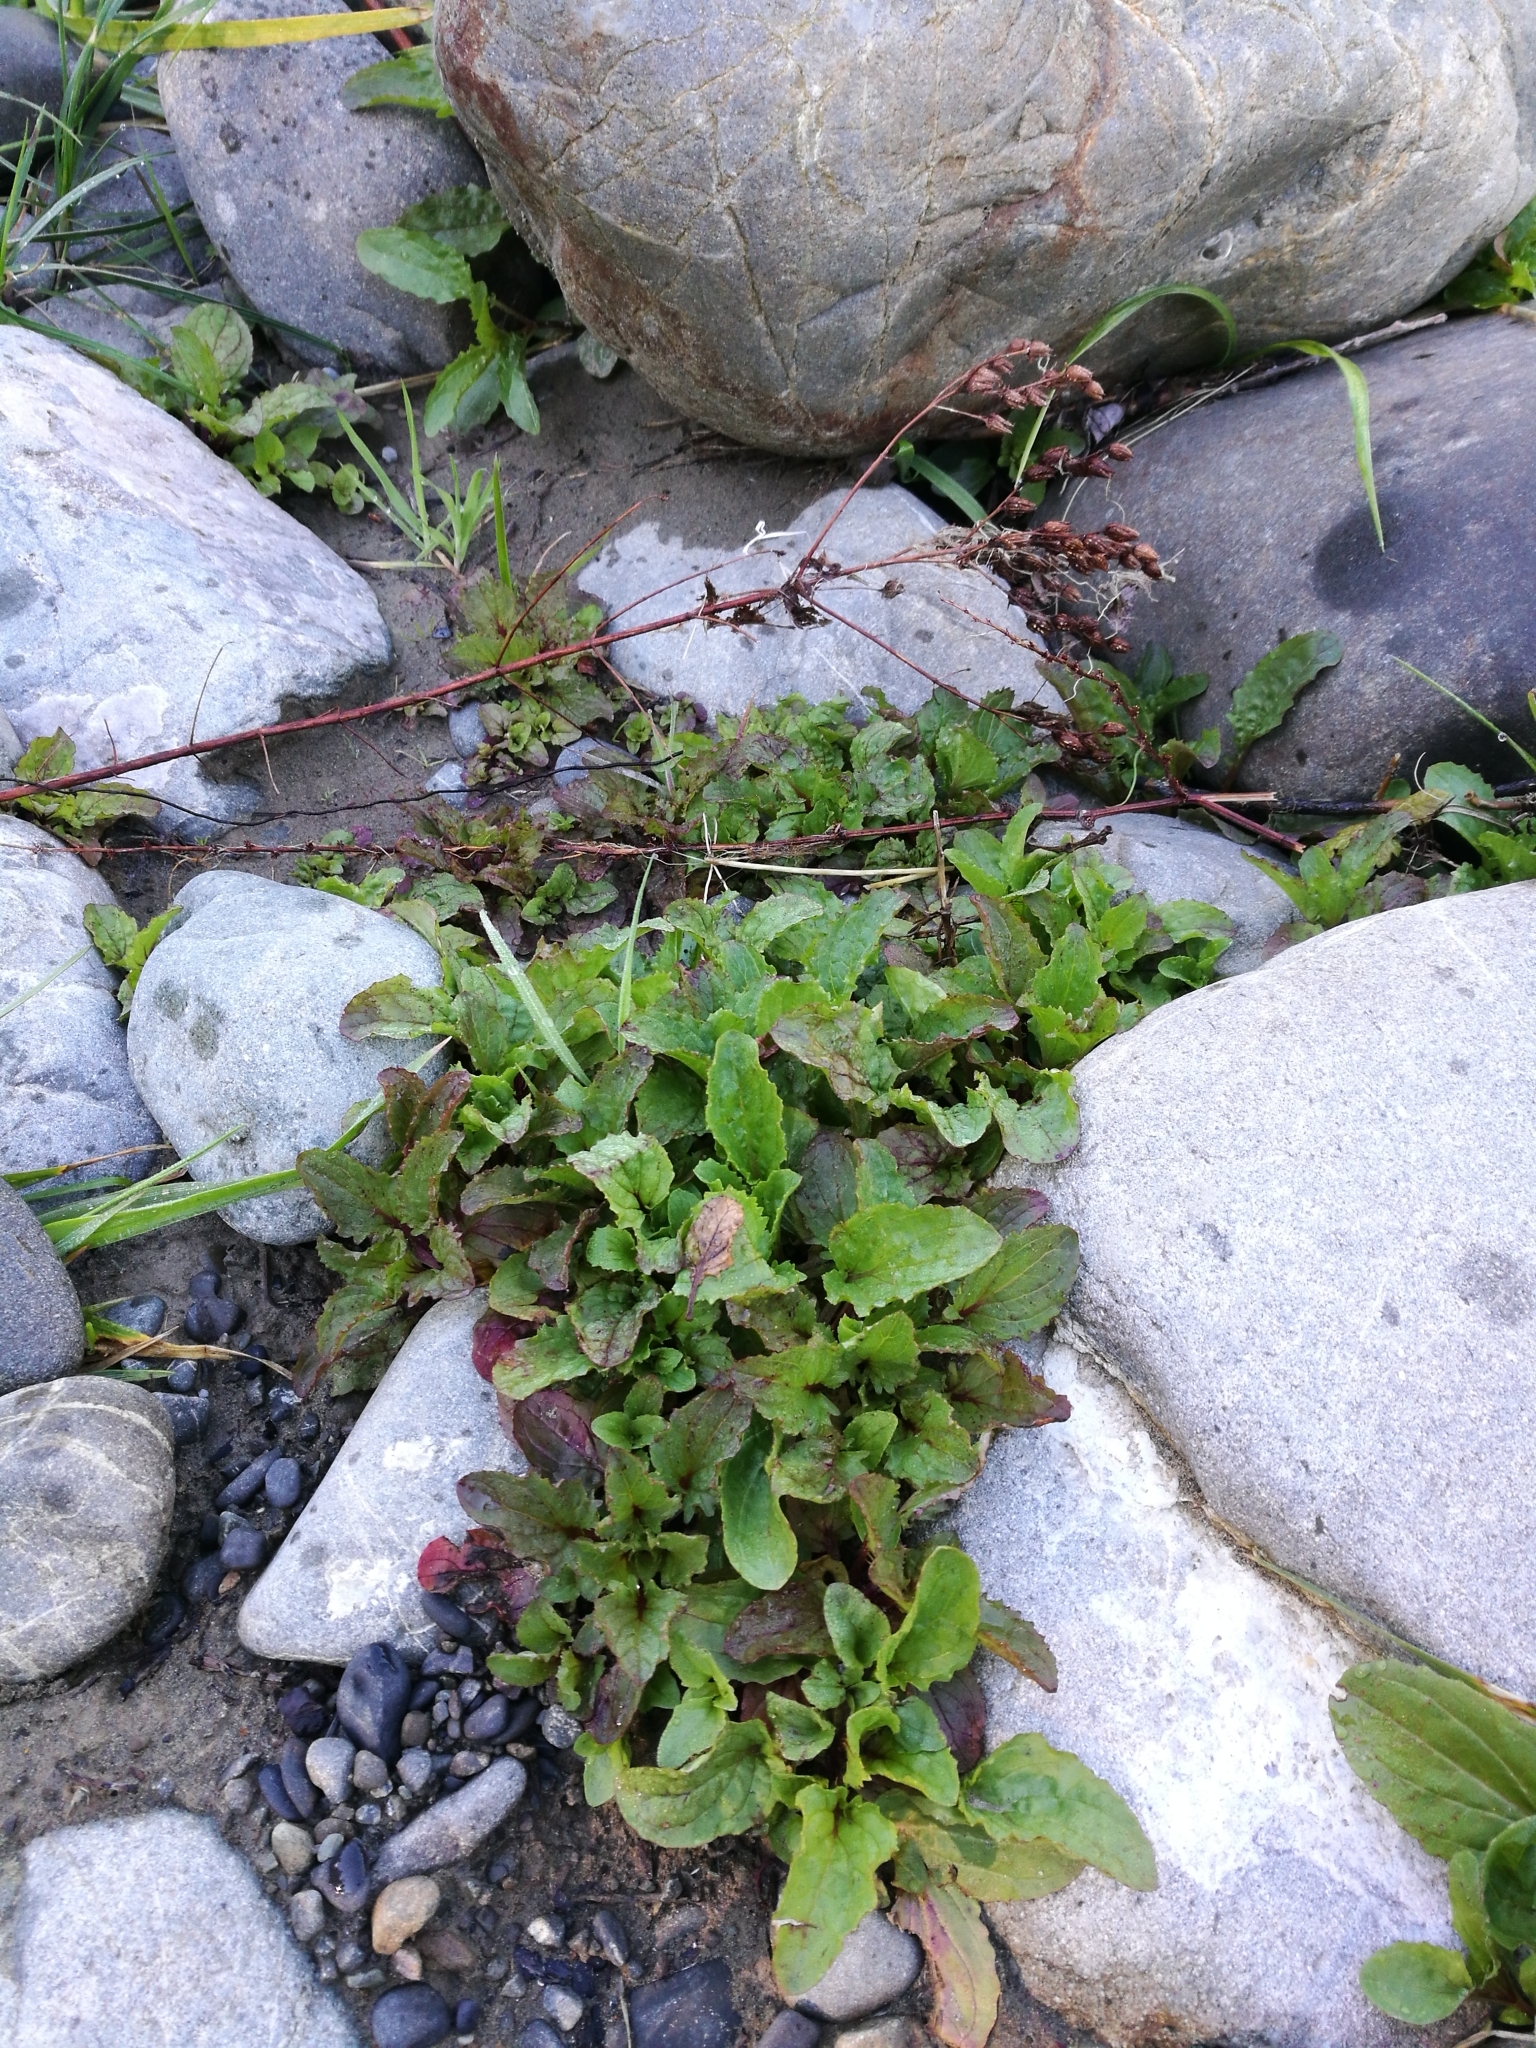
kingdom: Plantae
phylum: Tracheophyta
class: Magnoliopsida
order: Lamiales
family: Phrymaceae
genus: Erythranthe
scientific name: Erythranthe guttata
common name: Monkeyflower
